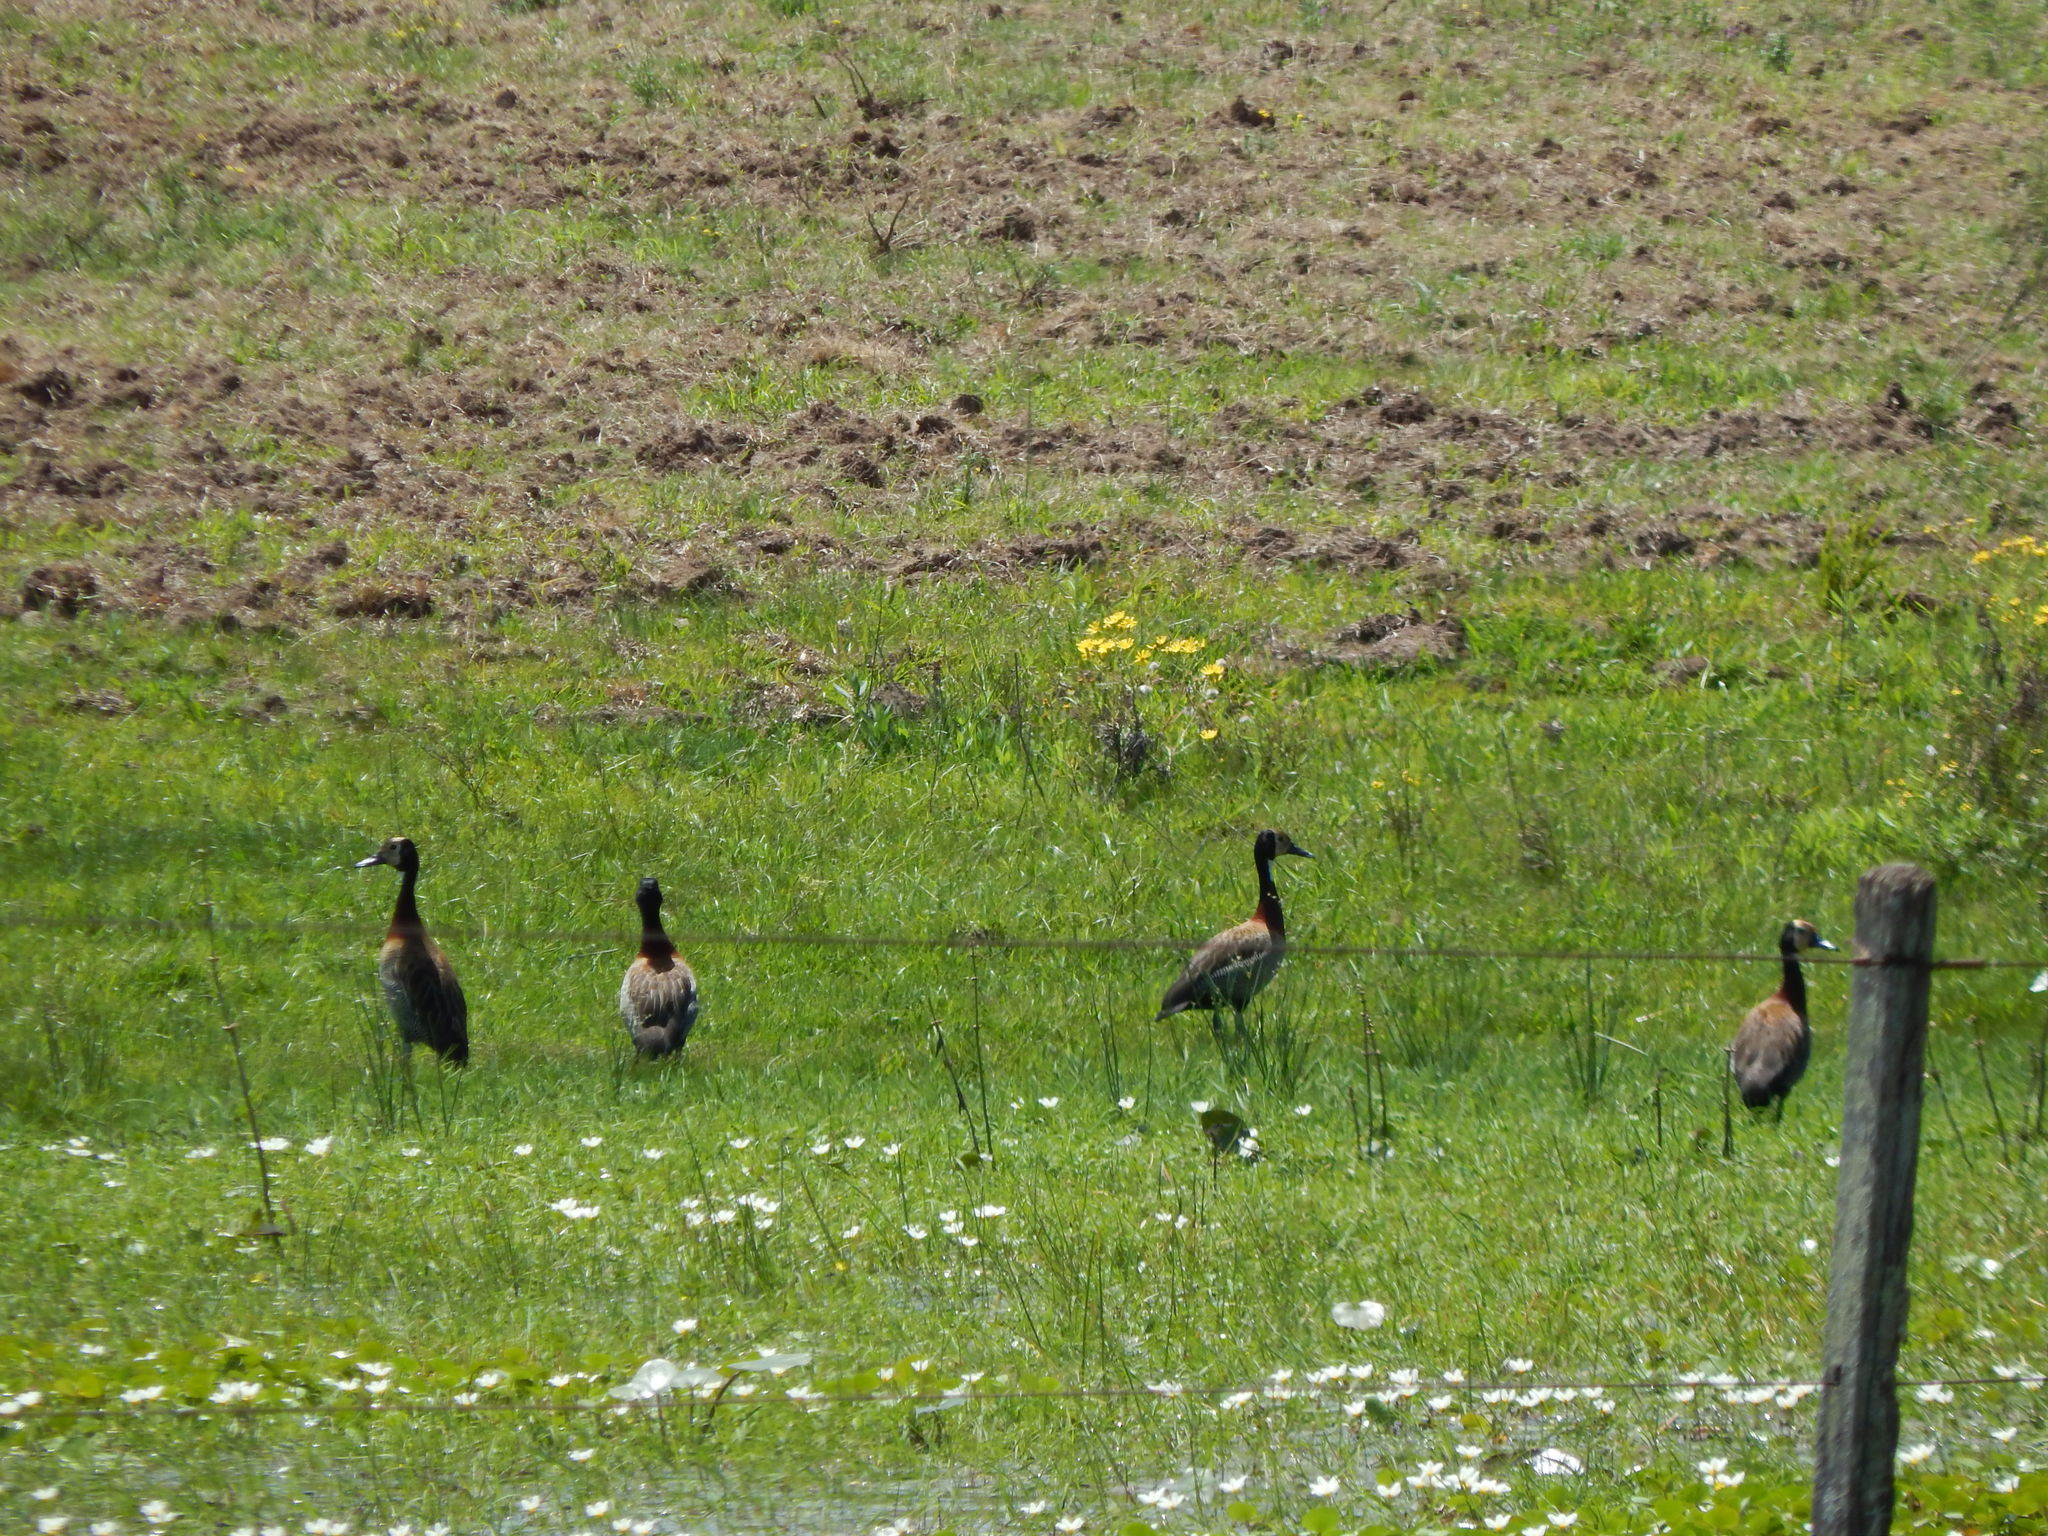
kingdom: Animalia
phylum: Chordata
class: Aves
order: Anseriformes
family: Anatidae
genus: Dendrocygna
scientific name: Dendrocygna viduata
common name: White-faced whistling duck
